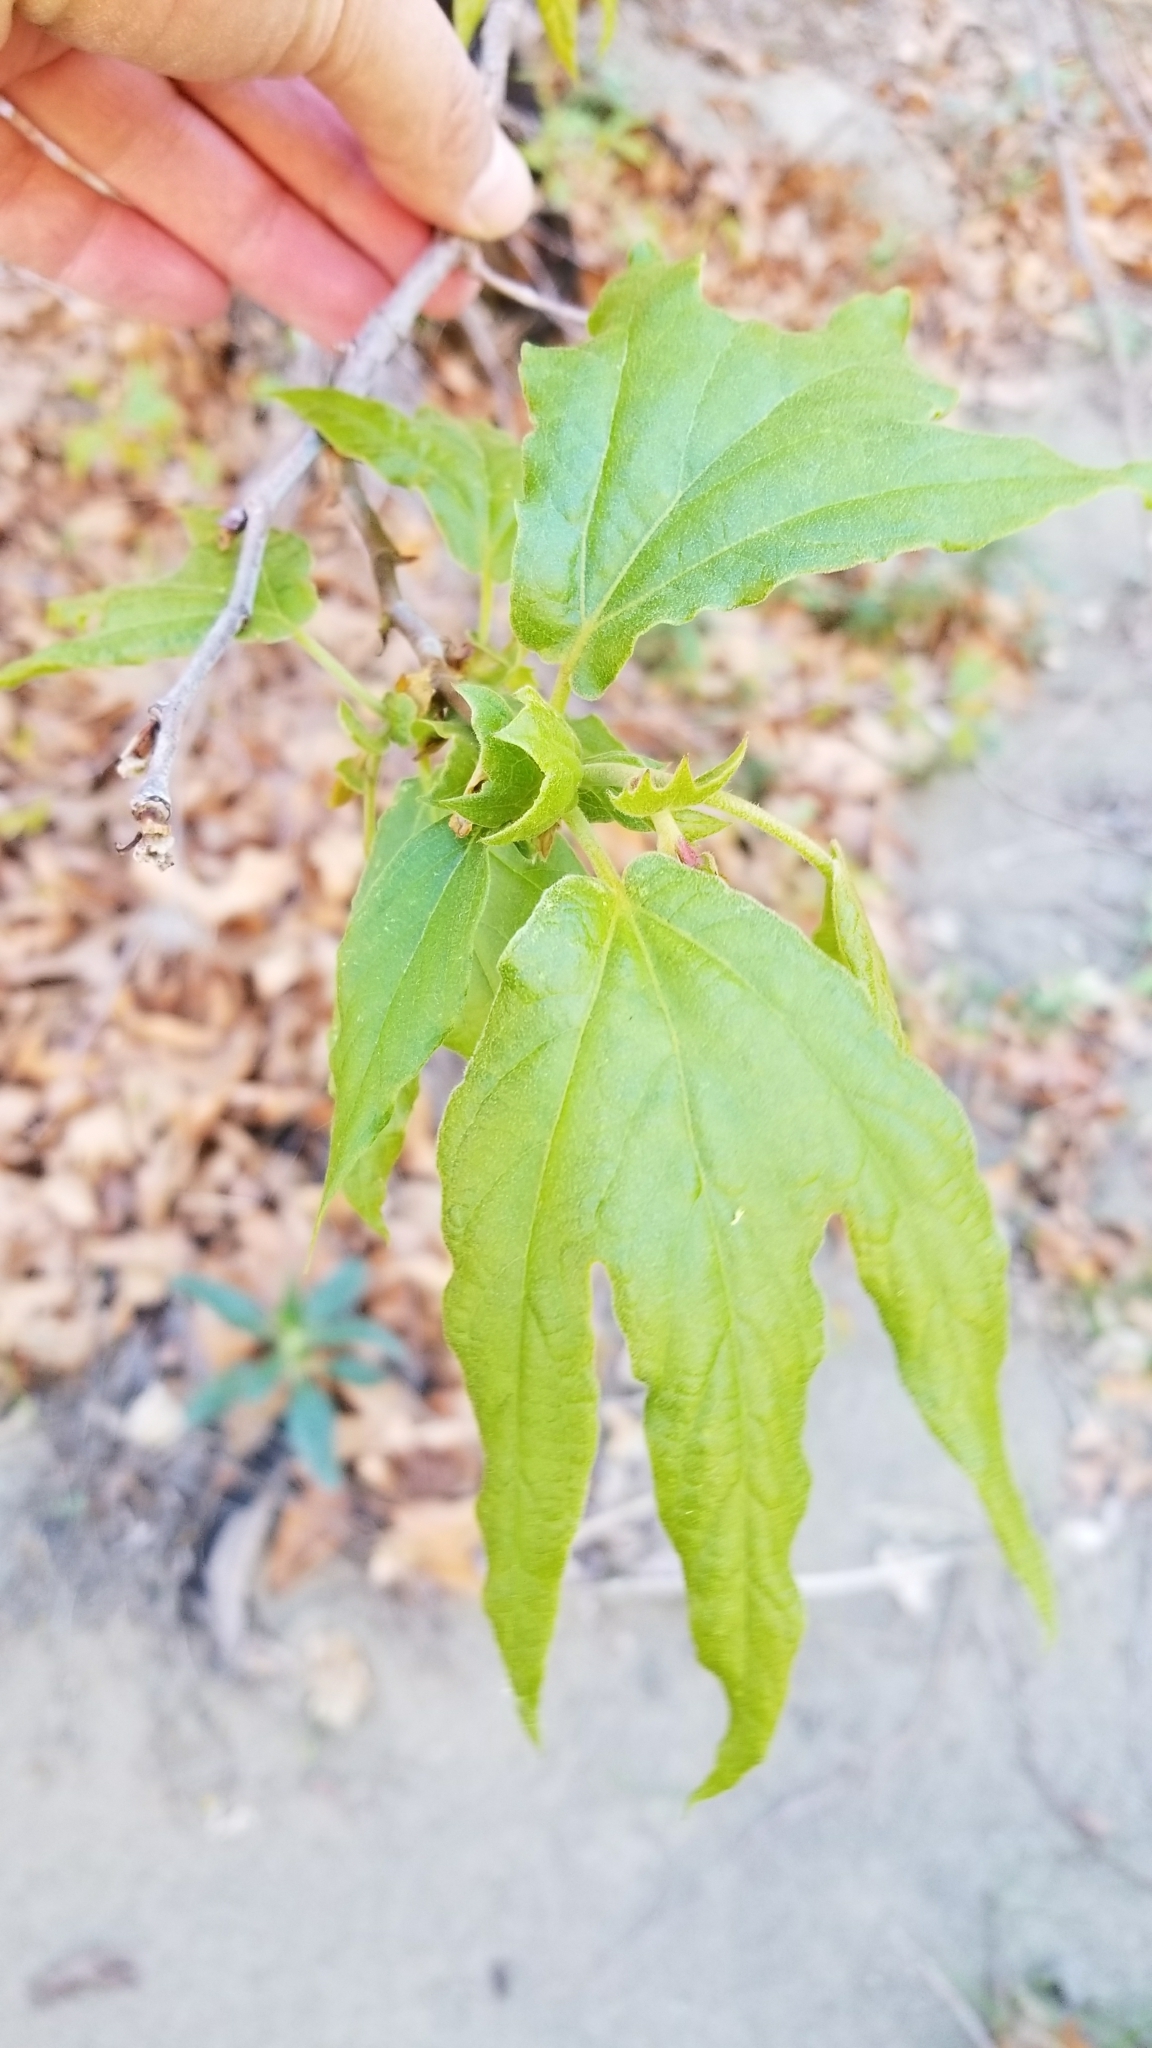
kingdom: Plantae
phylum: Tracheophyta
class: Magnoliopsida
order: Proteales
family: Platanaceae
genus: Platanus
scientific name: Platanus racemosa
